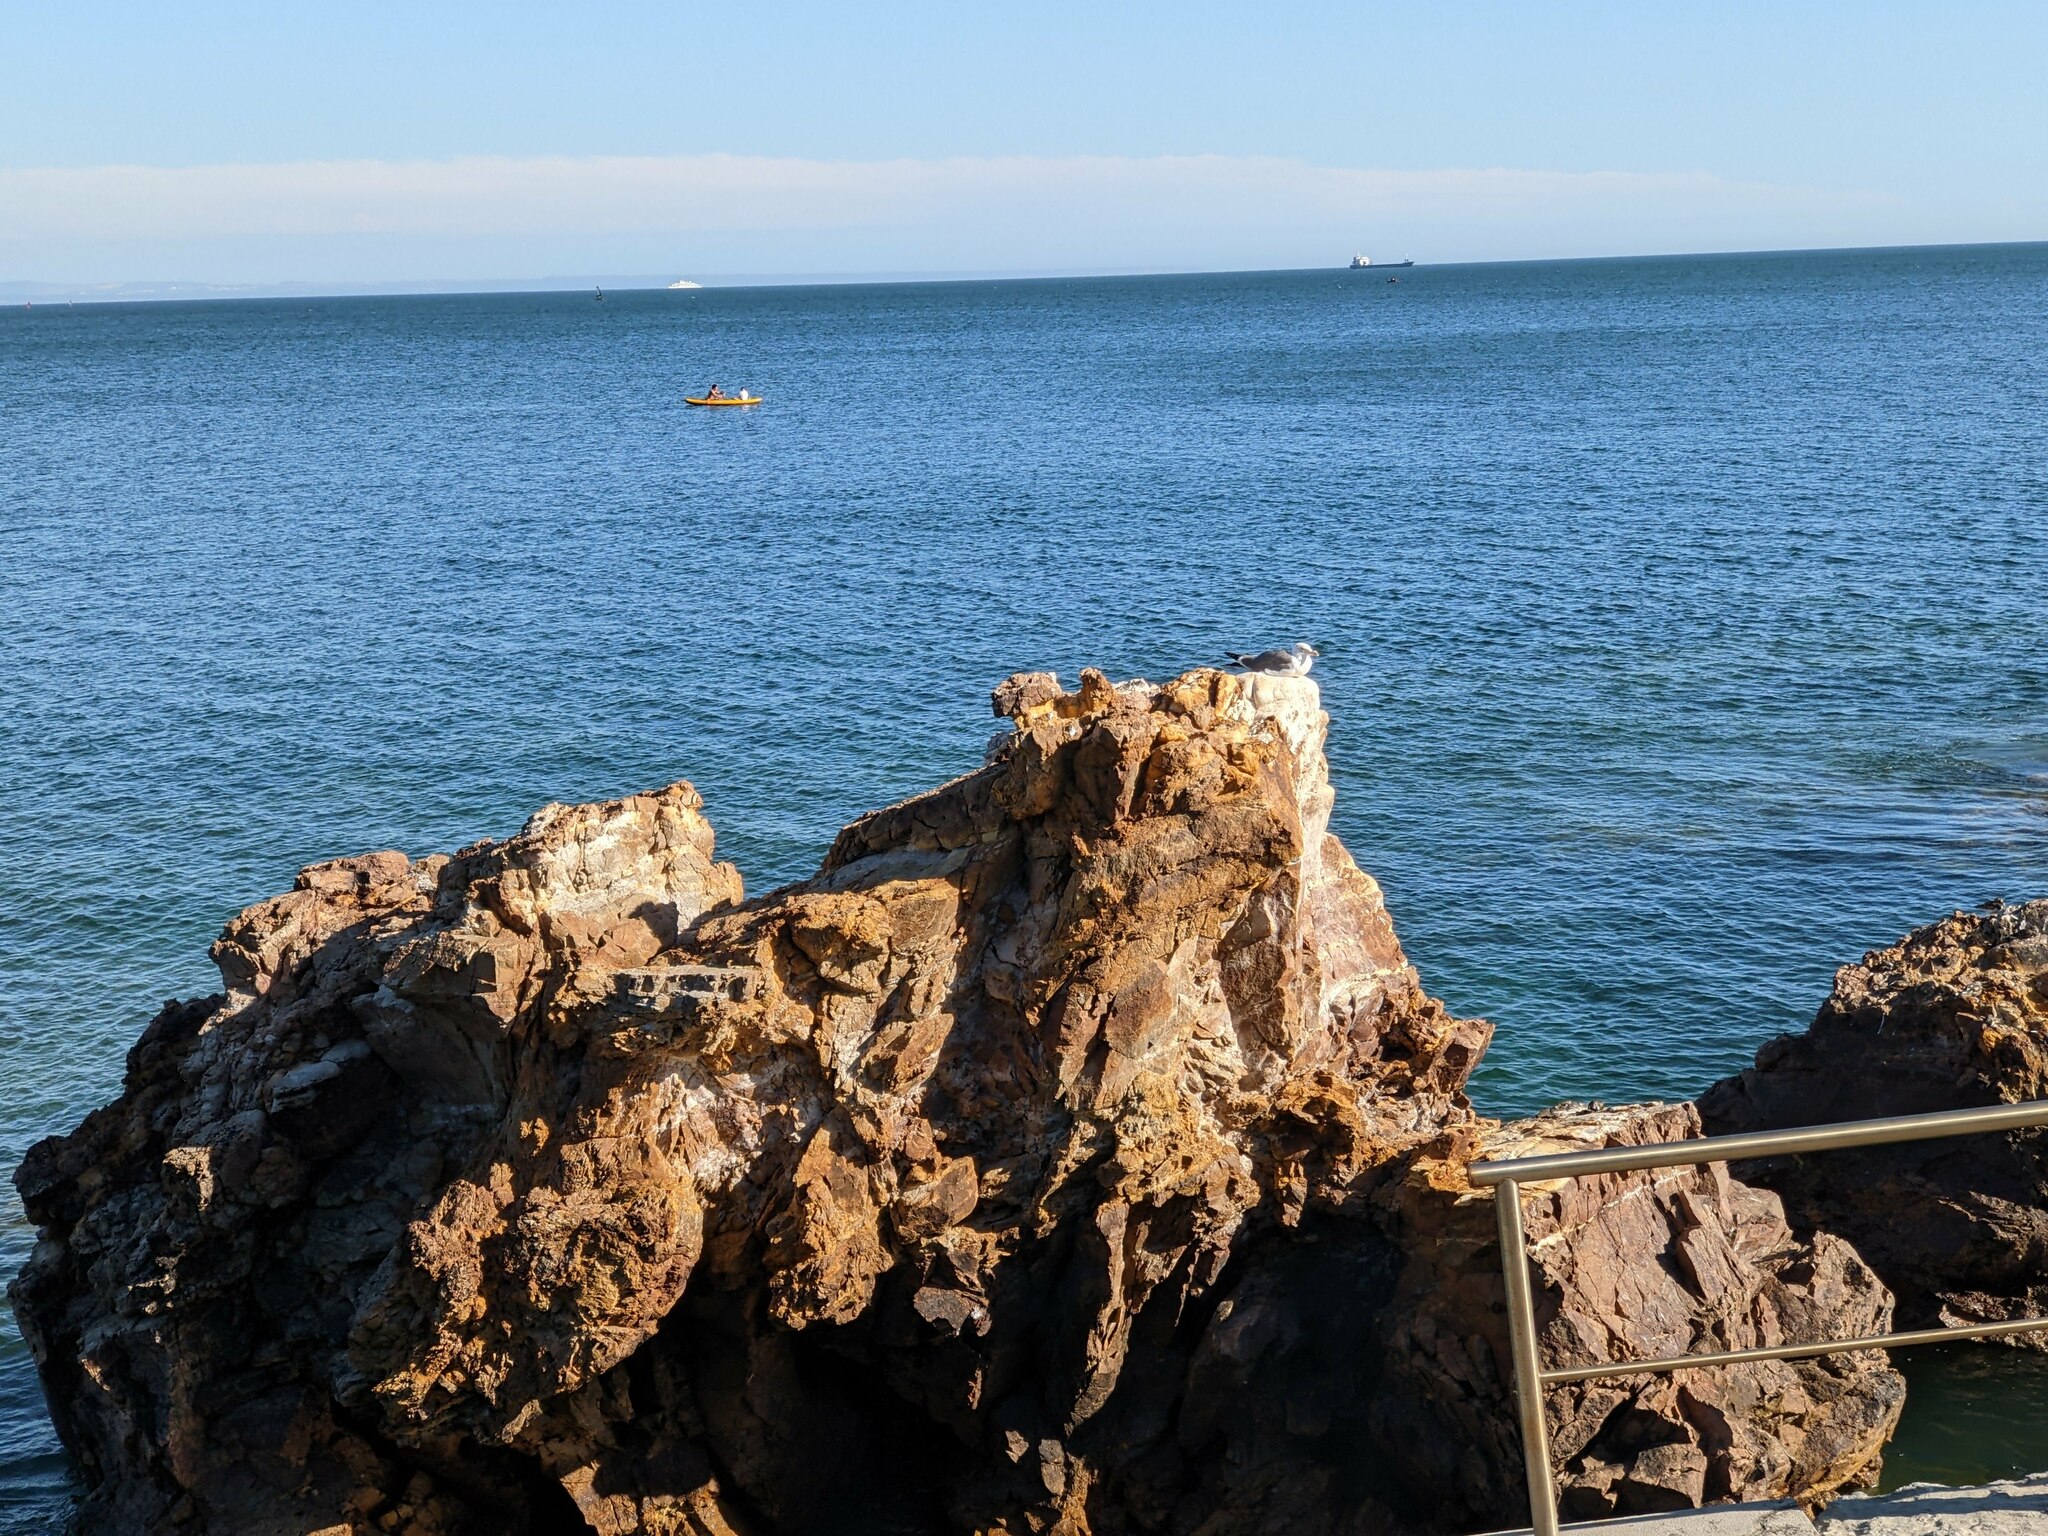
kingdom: Animalia
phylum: Chordata
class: Aves
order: Charadriiformes
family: Laridae
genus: Larus
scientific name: Larus fuscus
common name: Lesser black-backed gull
